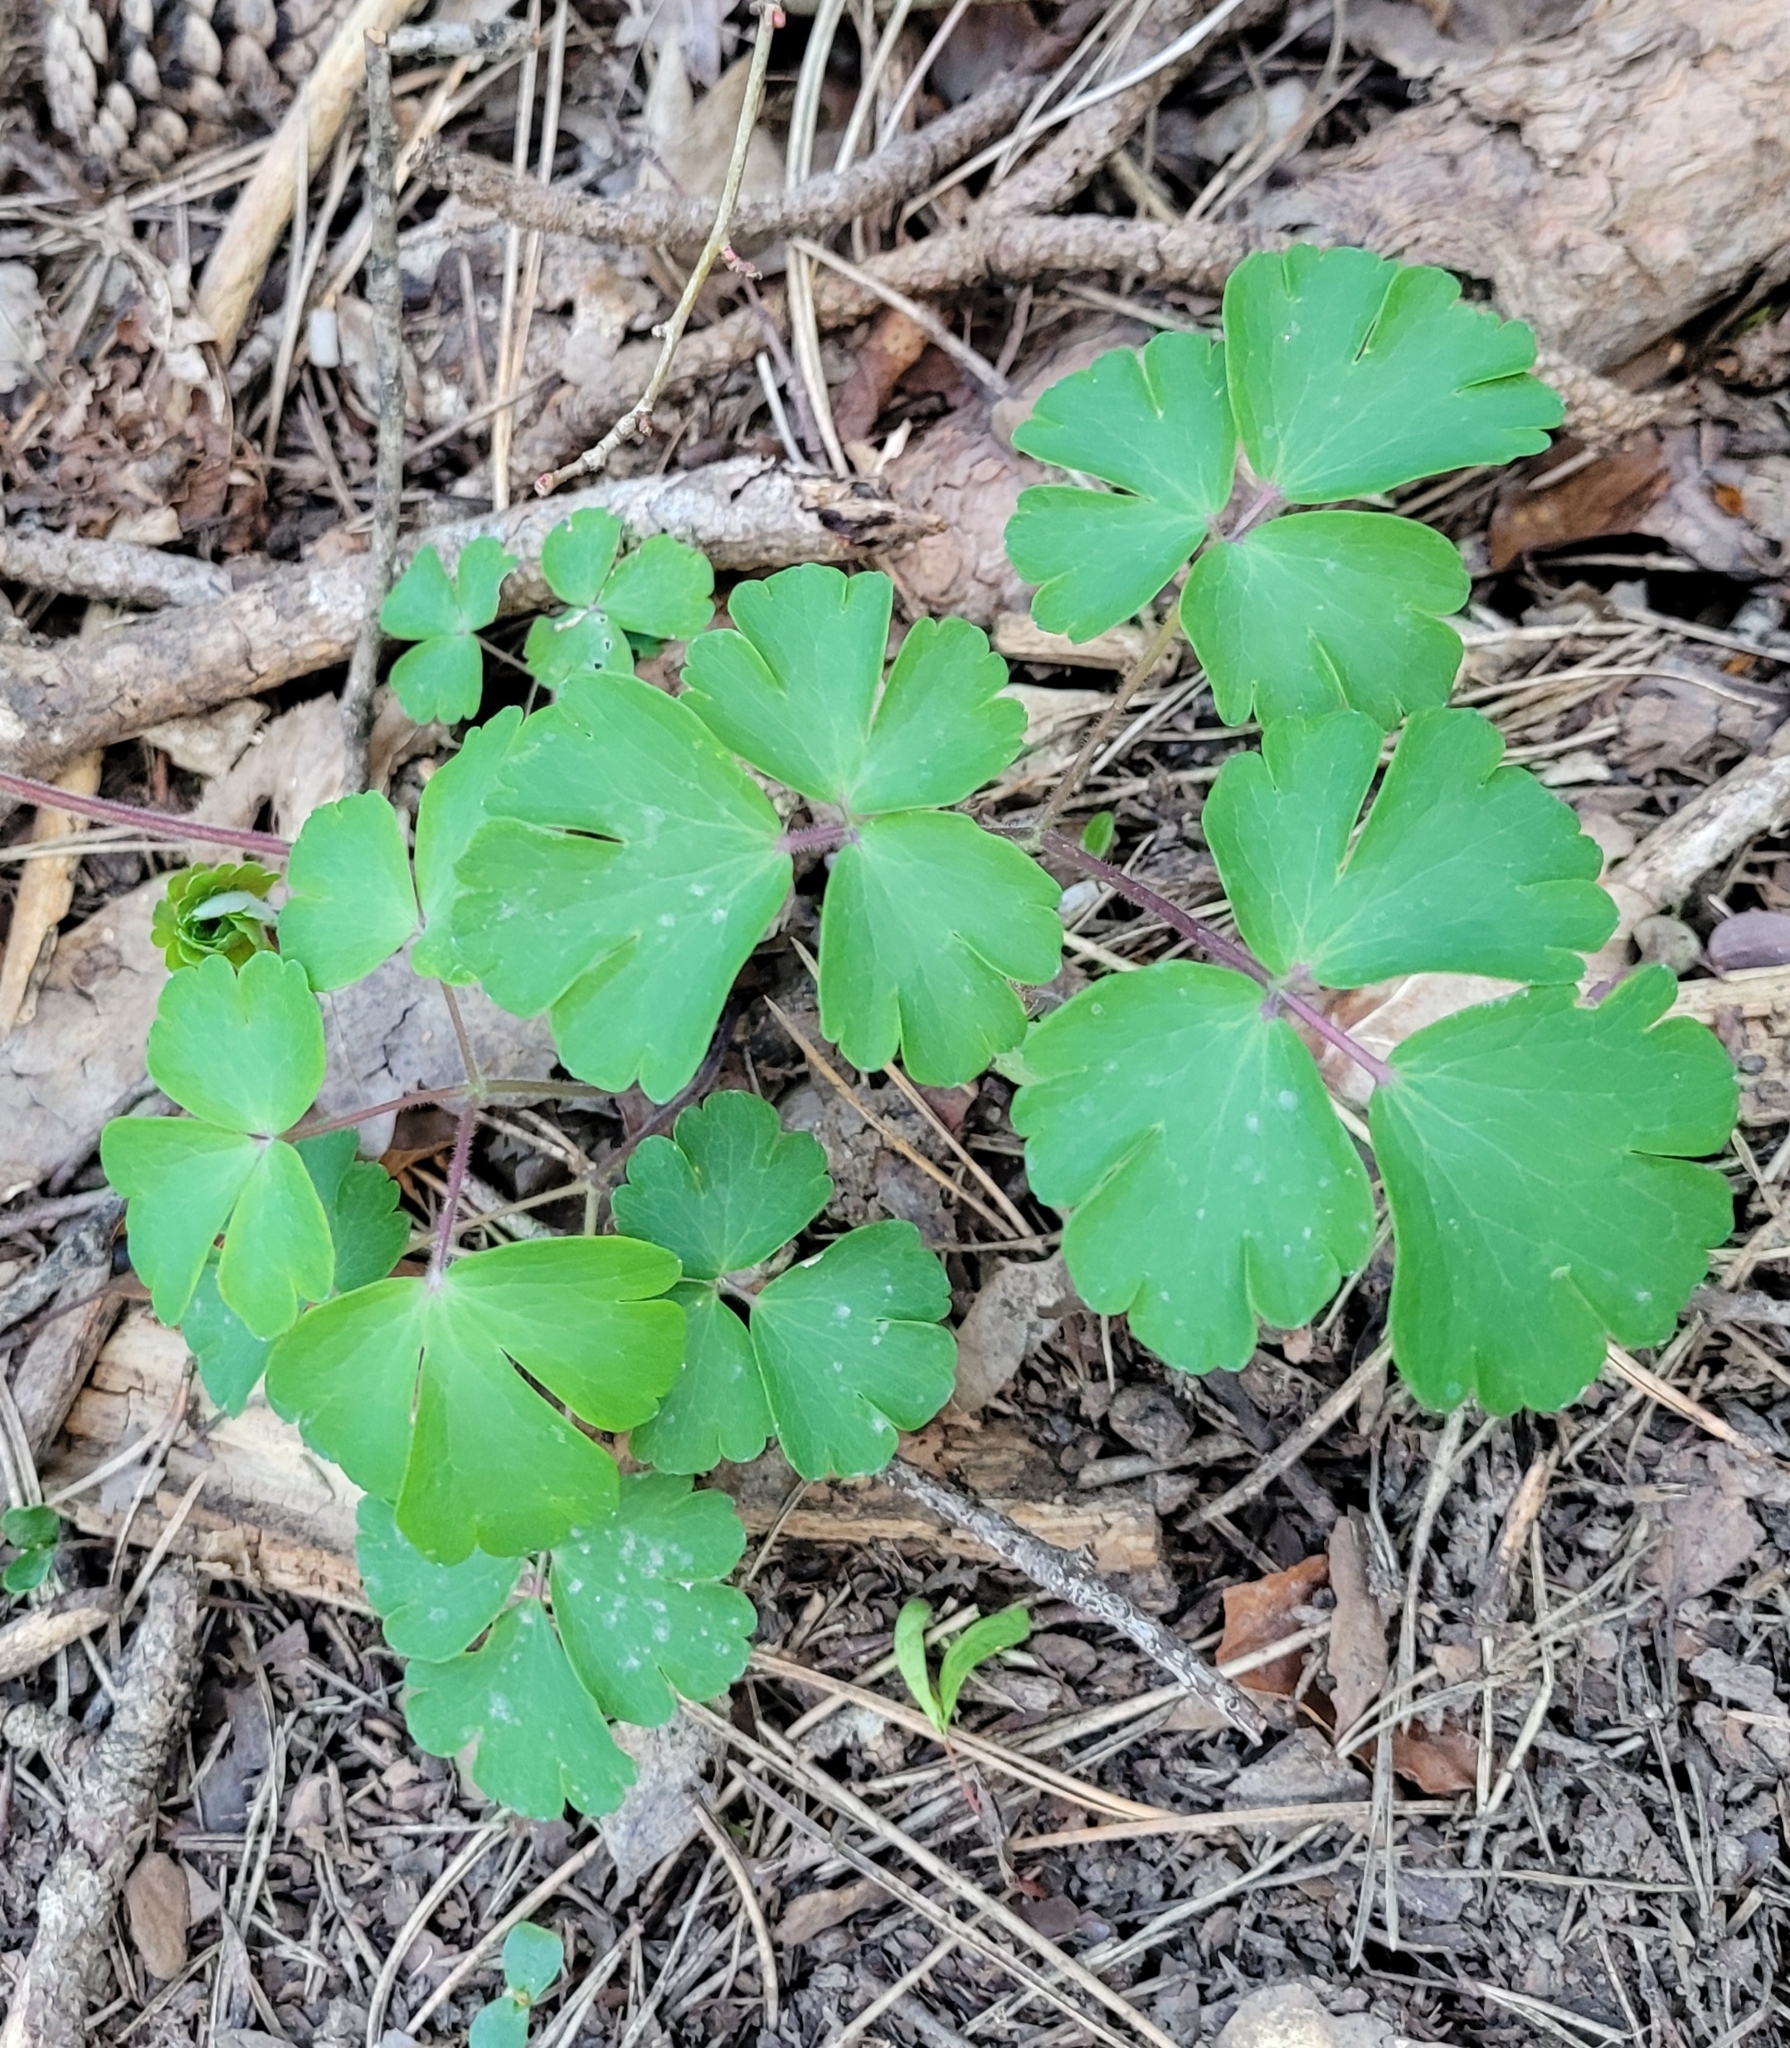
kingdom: Plantae
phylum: Tracheophyta
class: Magnoliopsida
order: Ranunculales
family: Ranunculaceae
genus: Aquilegia
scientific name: Aquilegia vulgaris
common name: Columbine
